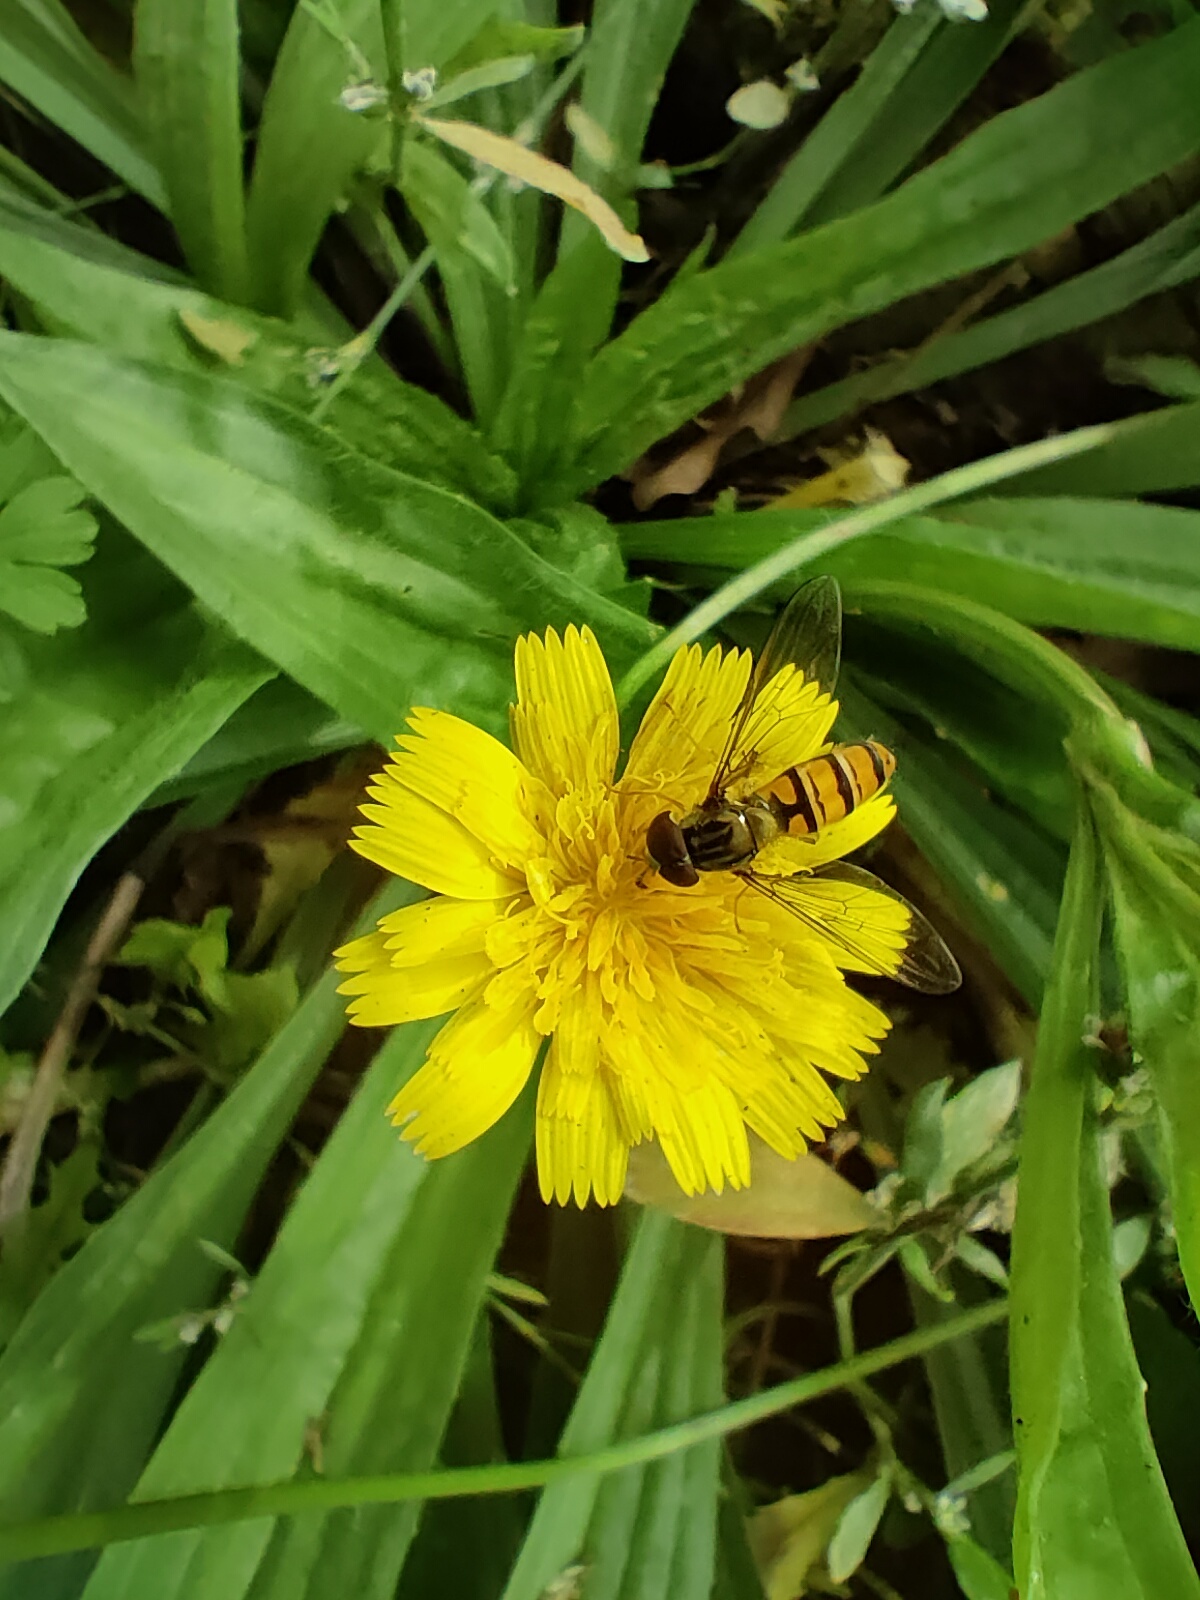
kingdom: Animalia
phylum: Arthropoda
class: Insecta
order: Diptera
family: Syrphidae
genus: Episyrphus
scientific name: Episyrphus balteatus
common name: Marmalade hoverfly
